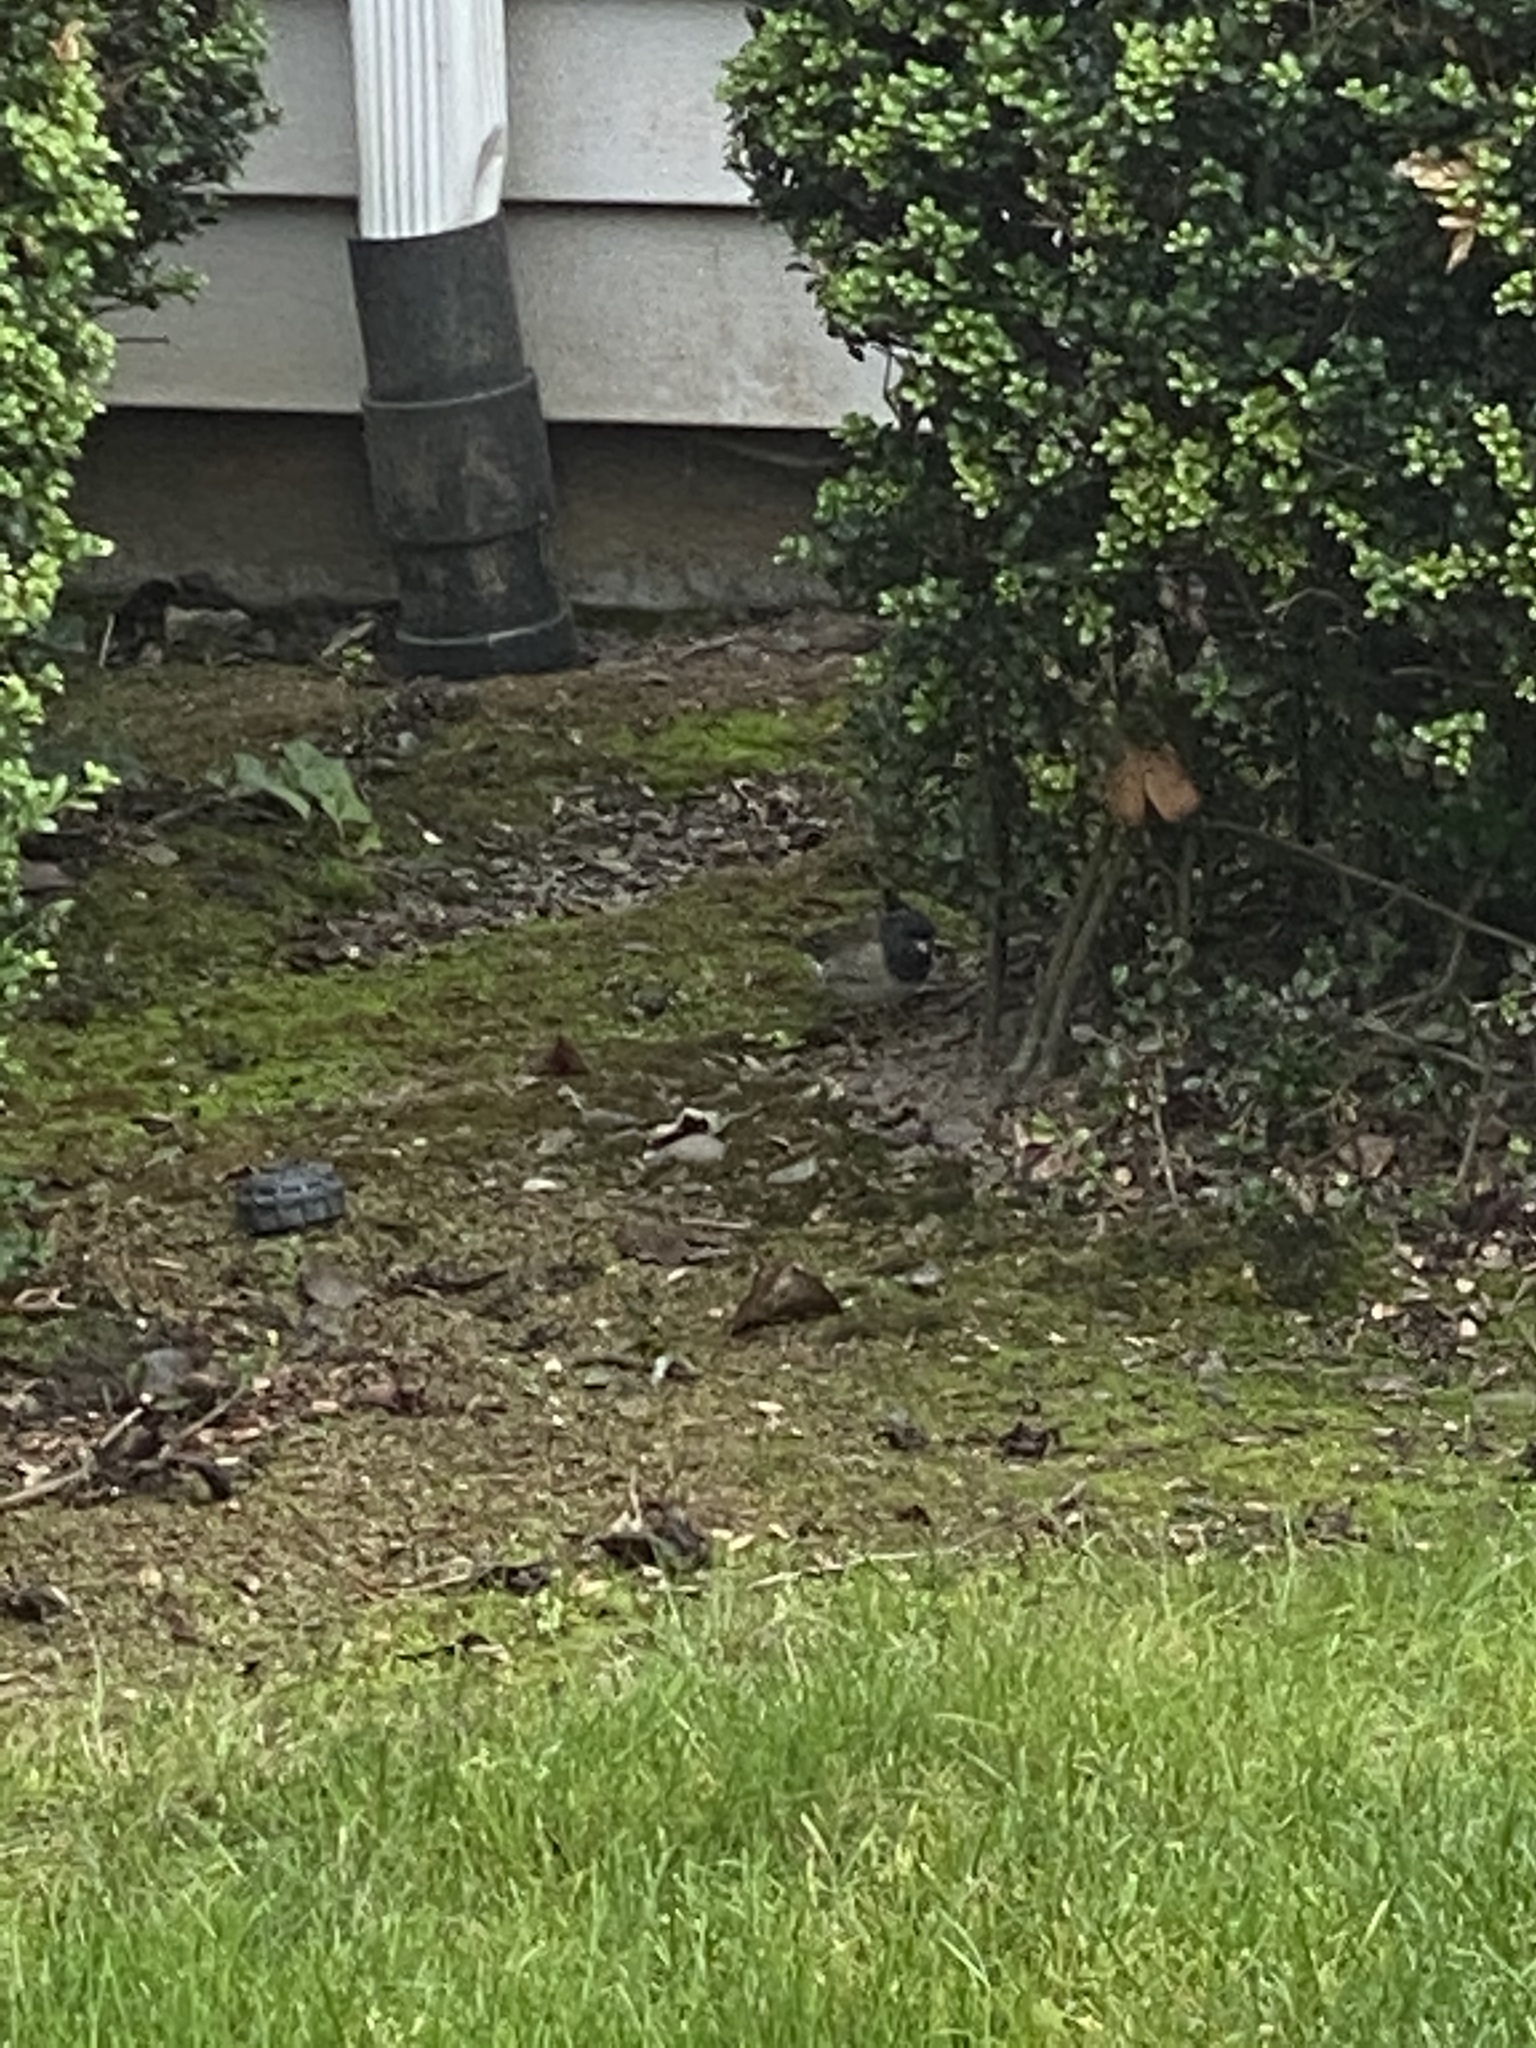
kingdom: Animalia
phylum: Chordata
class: Aves
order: Passeriformes
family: Passerellidae
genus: Junco
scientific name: Junco hyemalis
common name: Dark-eyed junco
